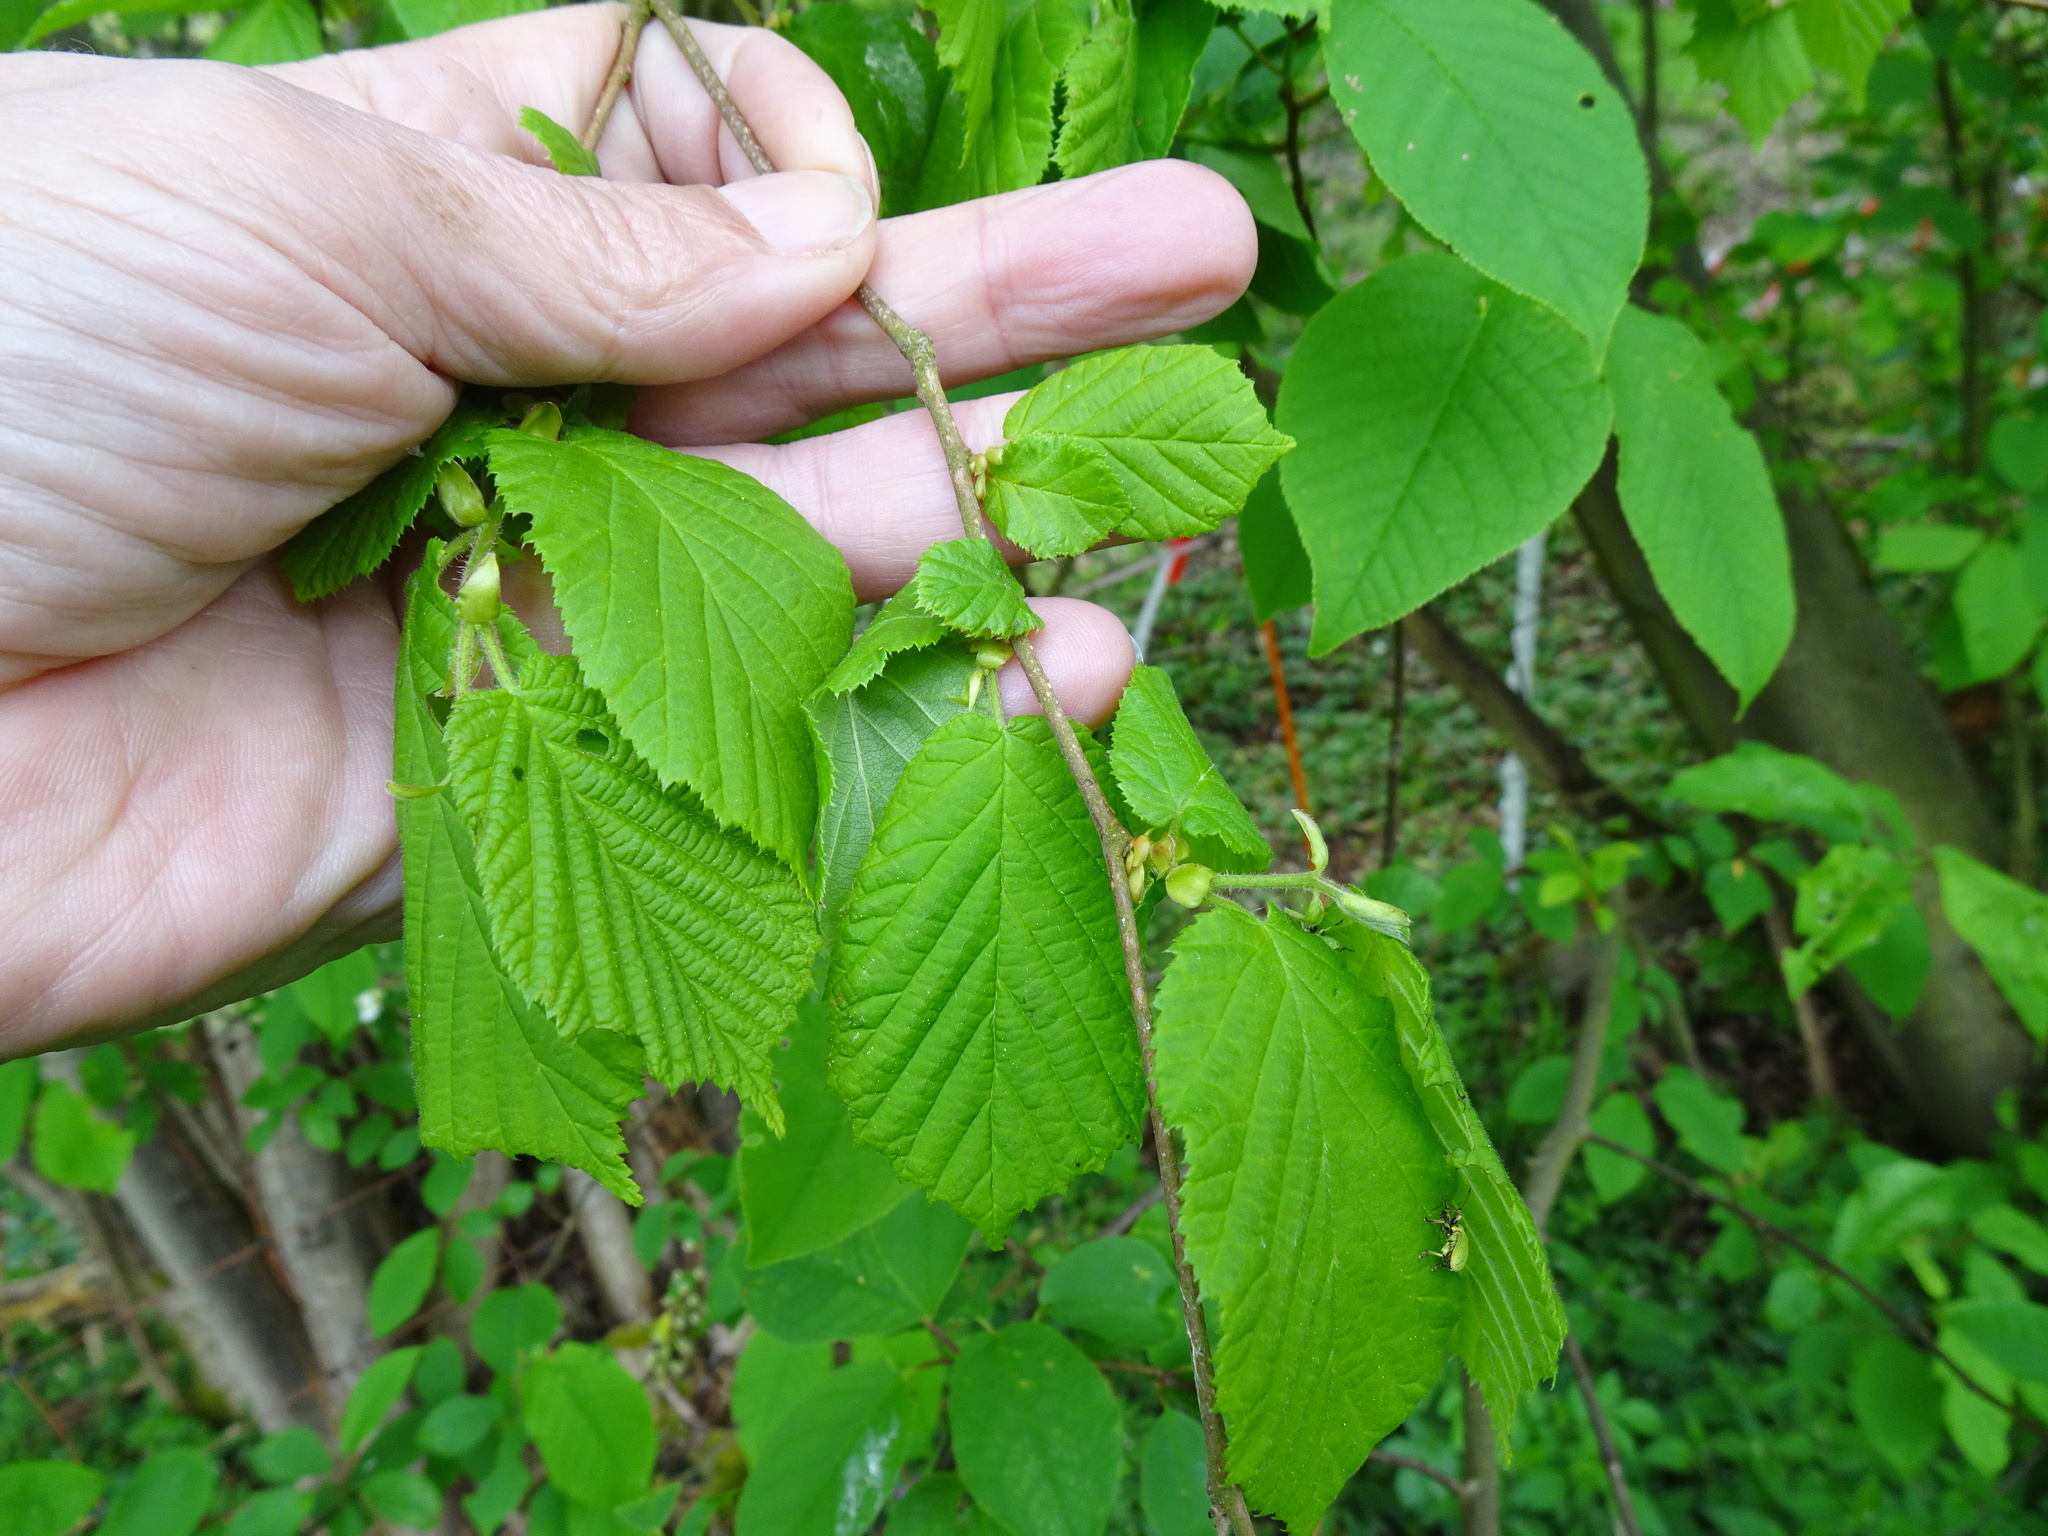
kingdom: Plantae
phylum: Tracheophyta
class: Magnoliopsida
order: Fagales
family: Betulaceae
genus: Corylus
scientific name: Corylus avellana
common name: European hazel
